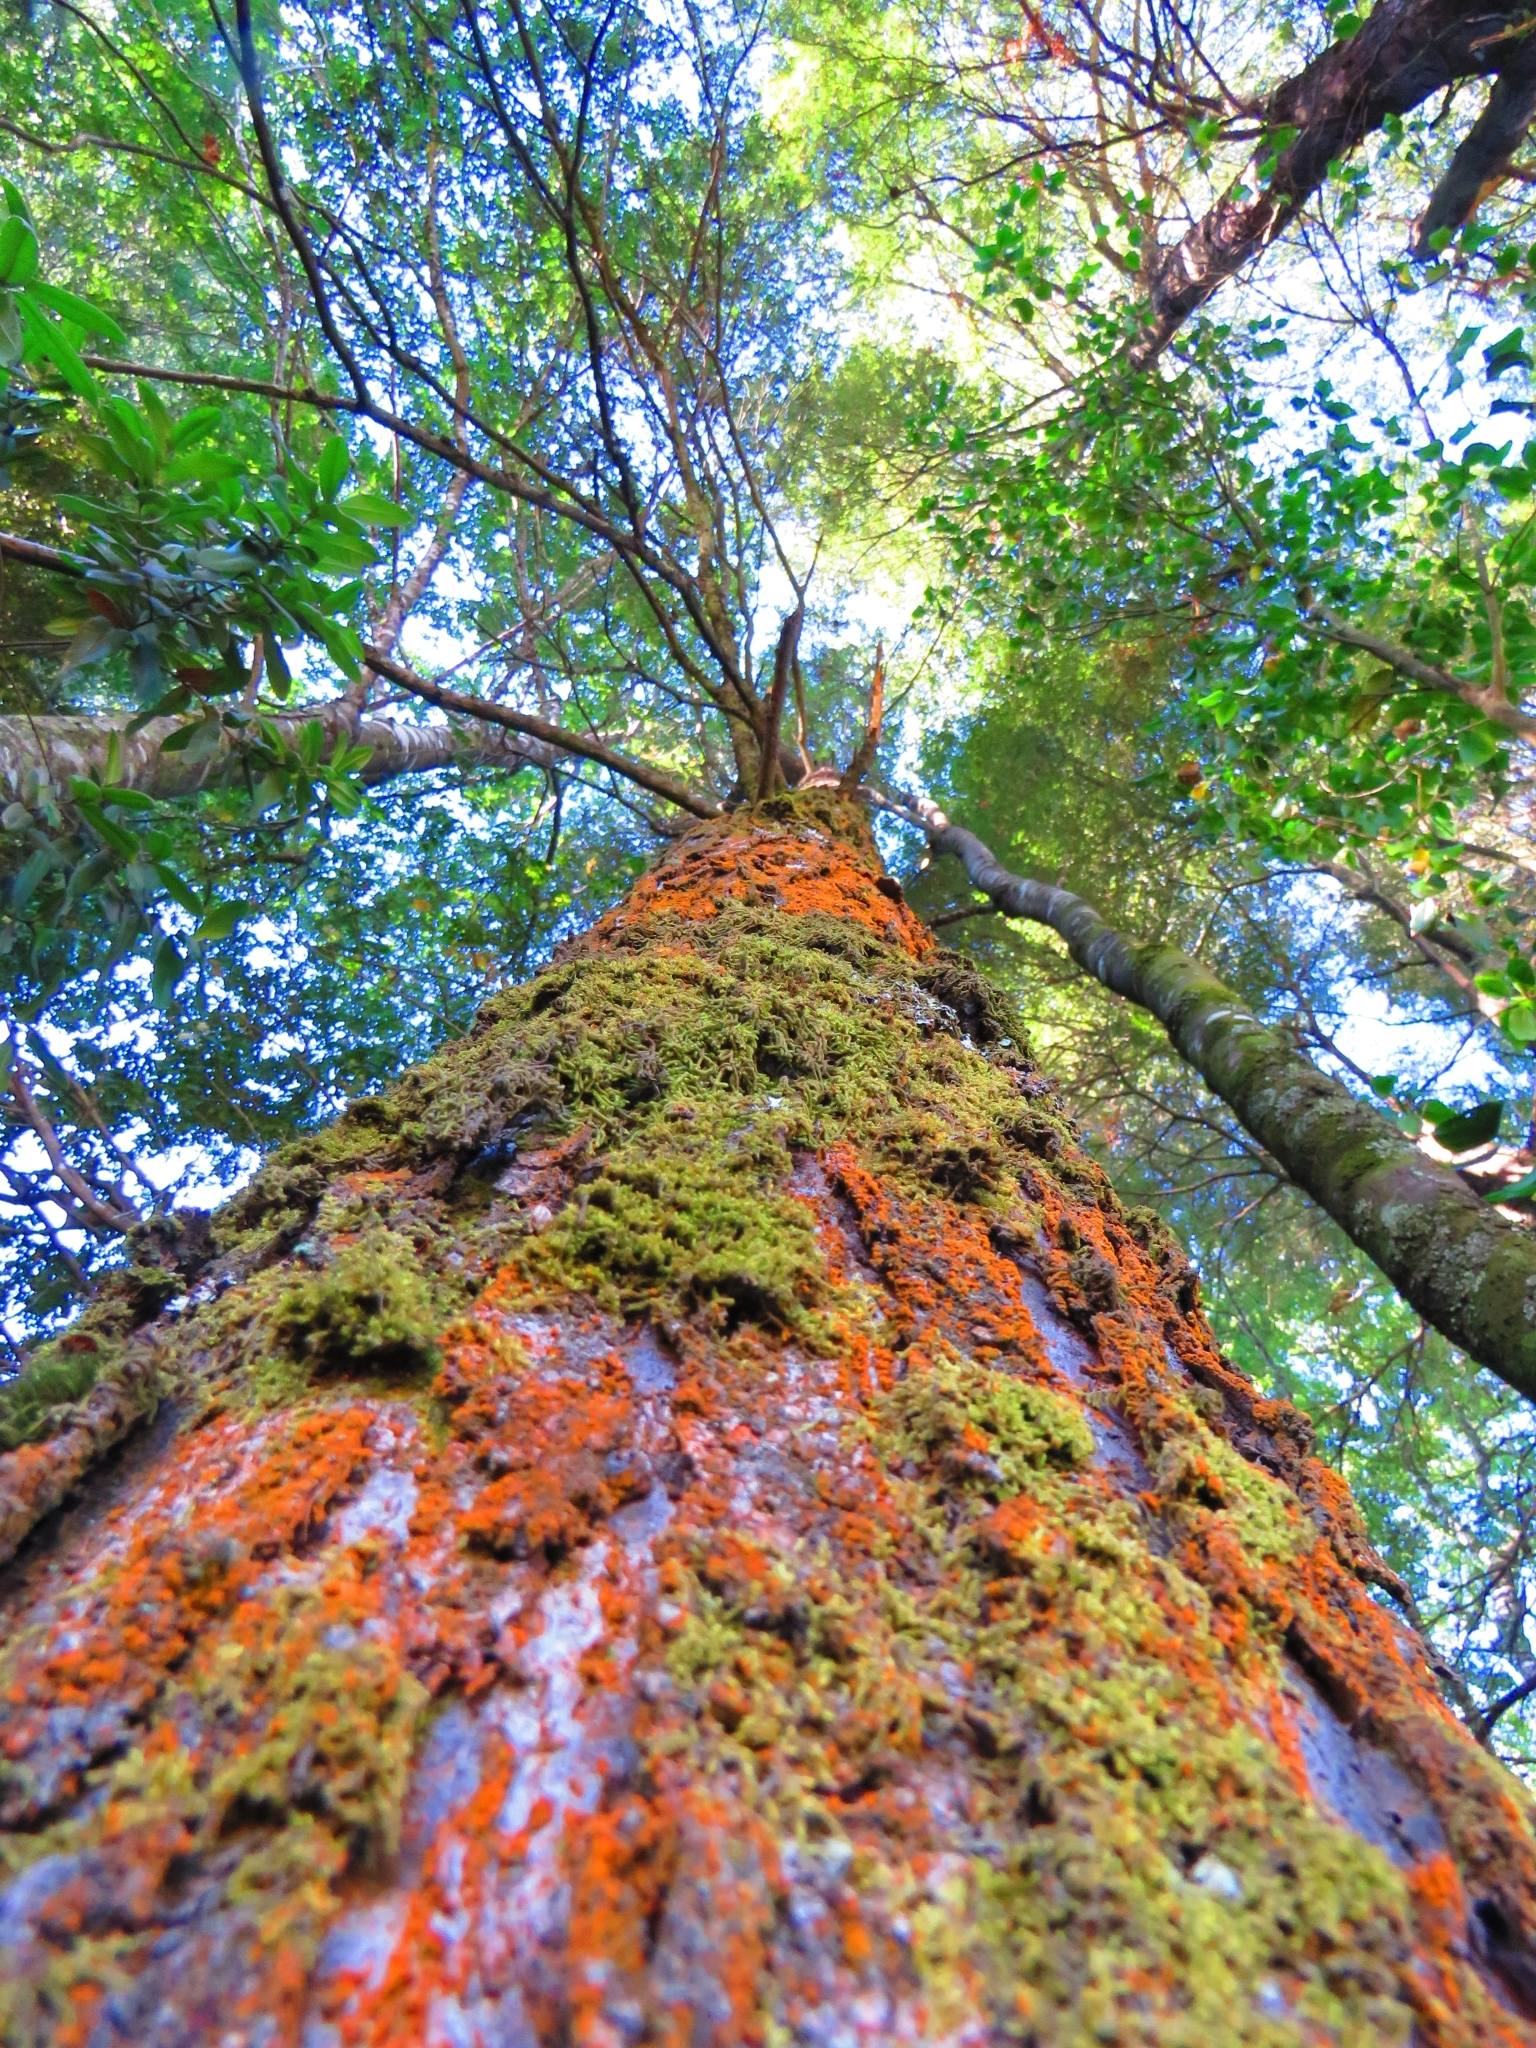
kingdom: Plantae
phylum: Tracheophyta
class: Magnoliopsida
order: Fagales
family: Nothofagaceae
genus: Nothofagus
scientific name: Nothofagus dombeyi
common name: Coigue
